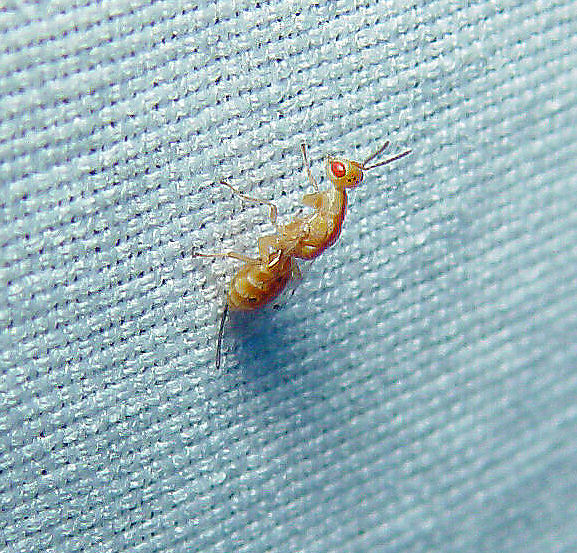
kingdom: Animalia
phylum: Arthropoda
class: Insecta
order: Hymenoptera
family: Torymidae
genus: Megastigmus
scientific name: Megastigmus
